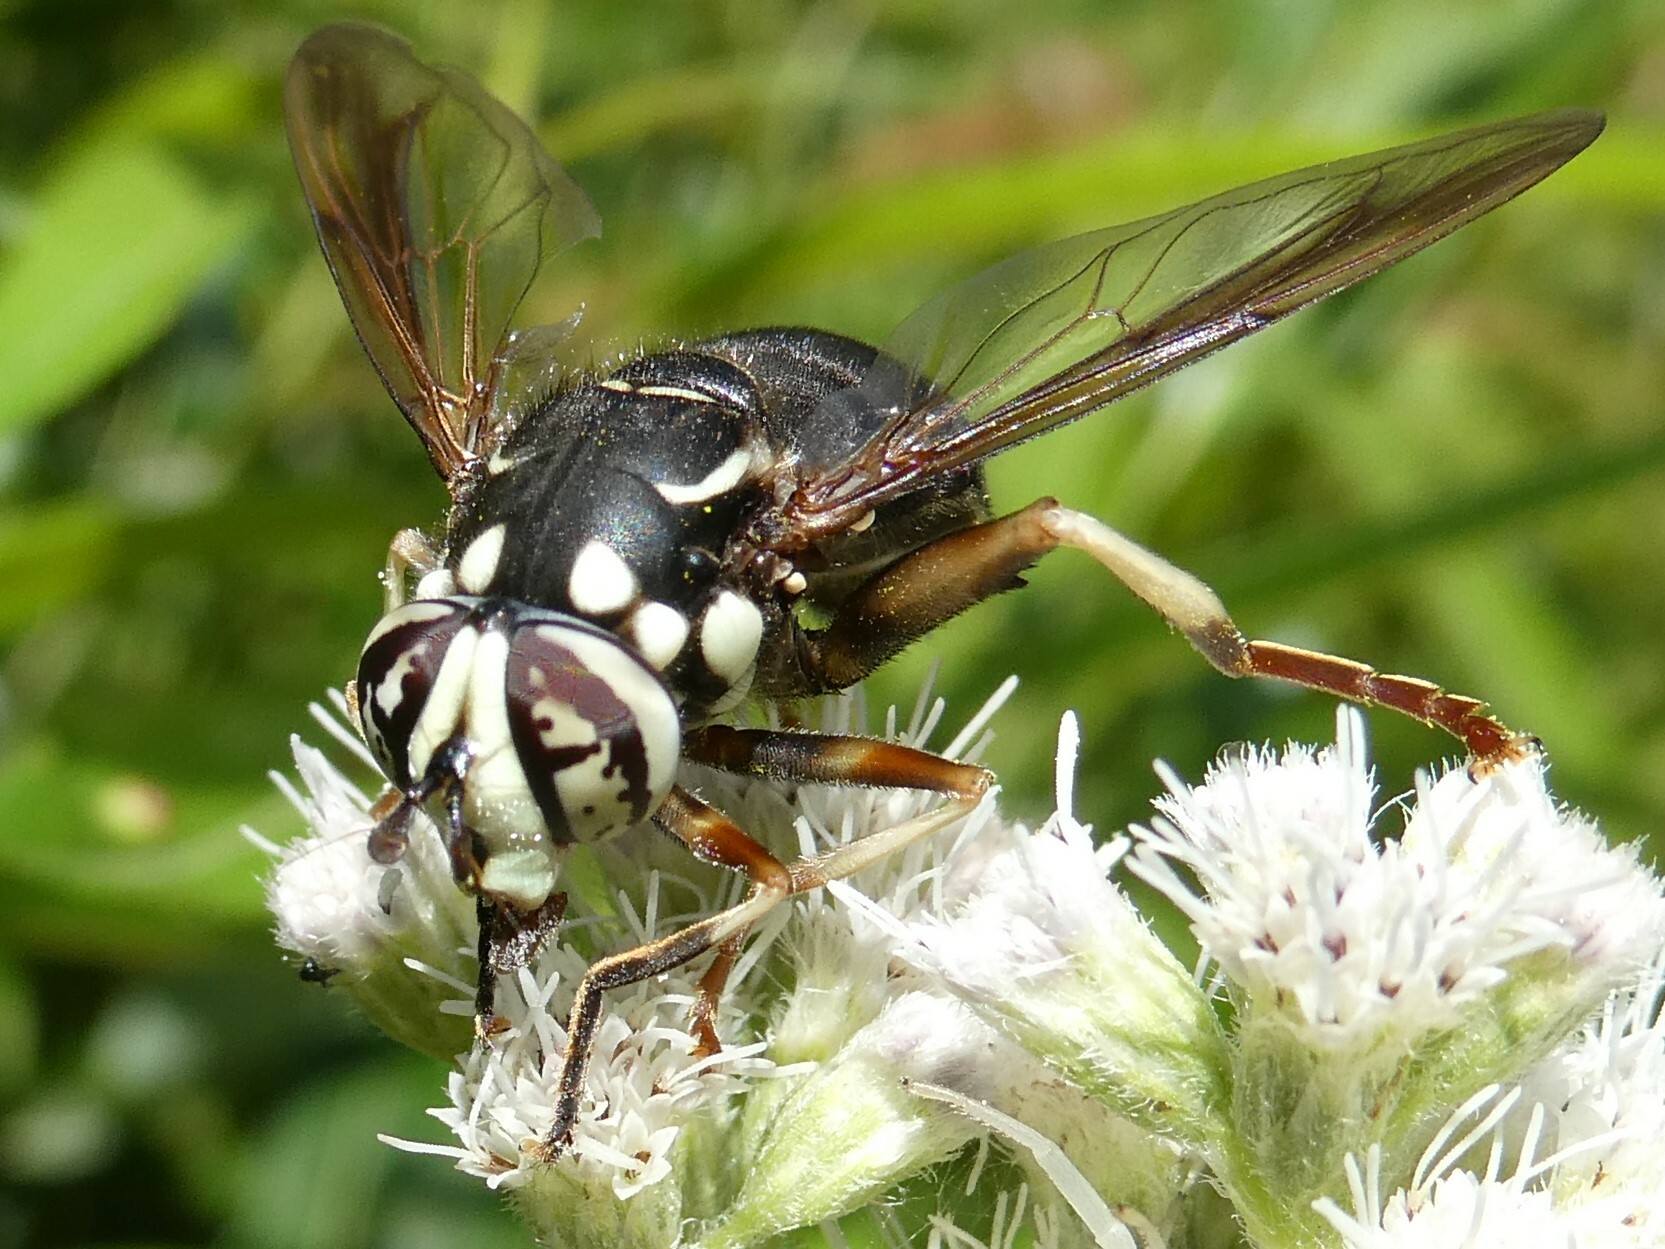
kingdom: Animalia
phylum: Arthropoda
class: Insecta
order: Diptera
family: Syrphidae
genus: Spilomyia
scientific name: Spilomyia fusca
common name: Bald-faced hornet fly
